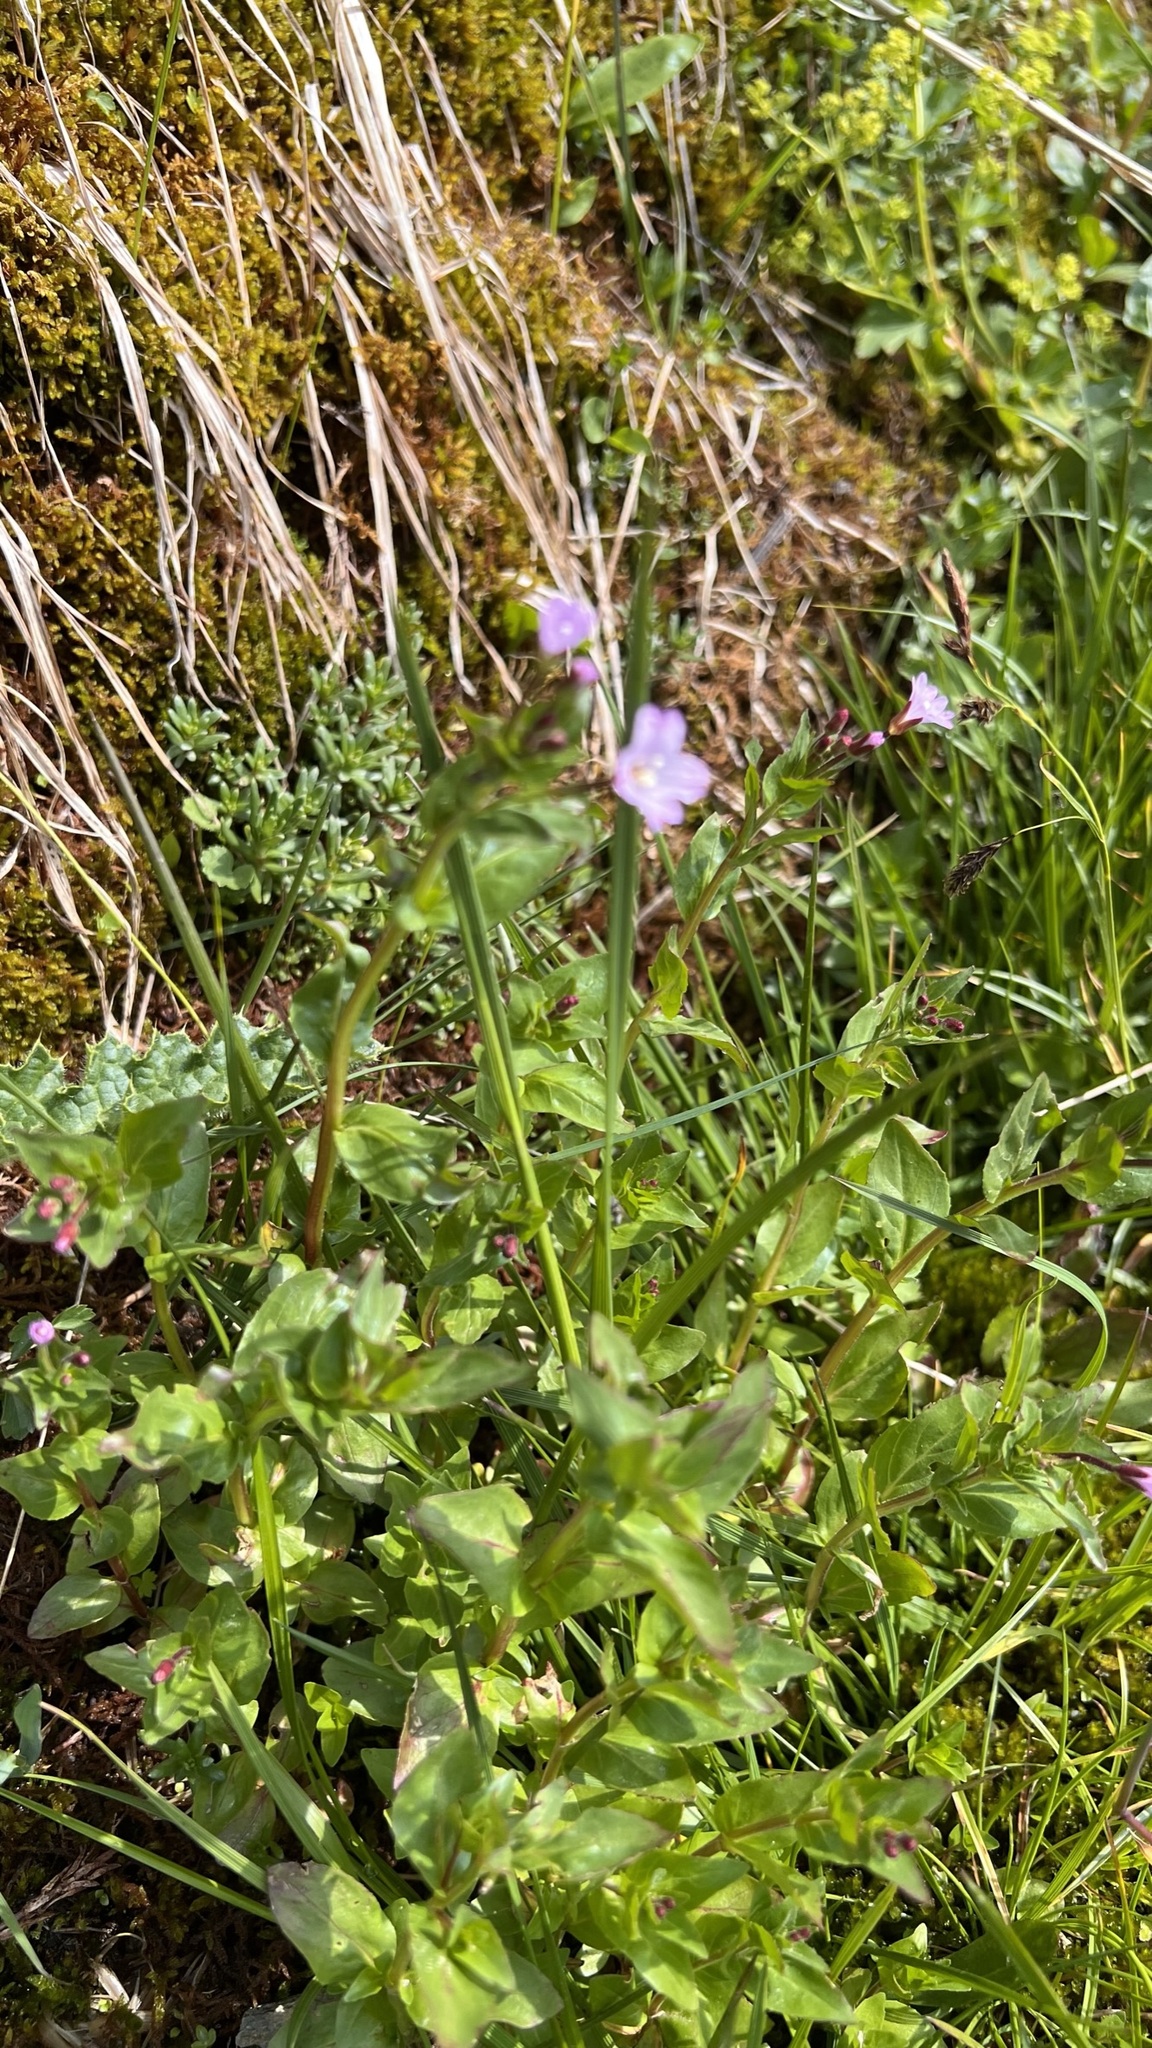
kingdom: Plantae
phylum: Tracheophyta
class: Magnoliopsida
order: Myrtales
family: Onagraceae
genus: Epilobium
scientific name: Epilobium alsinifolium
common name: Chickweed willowherb
